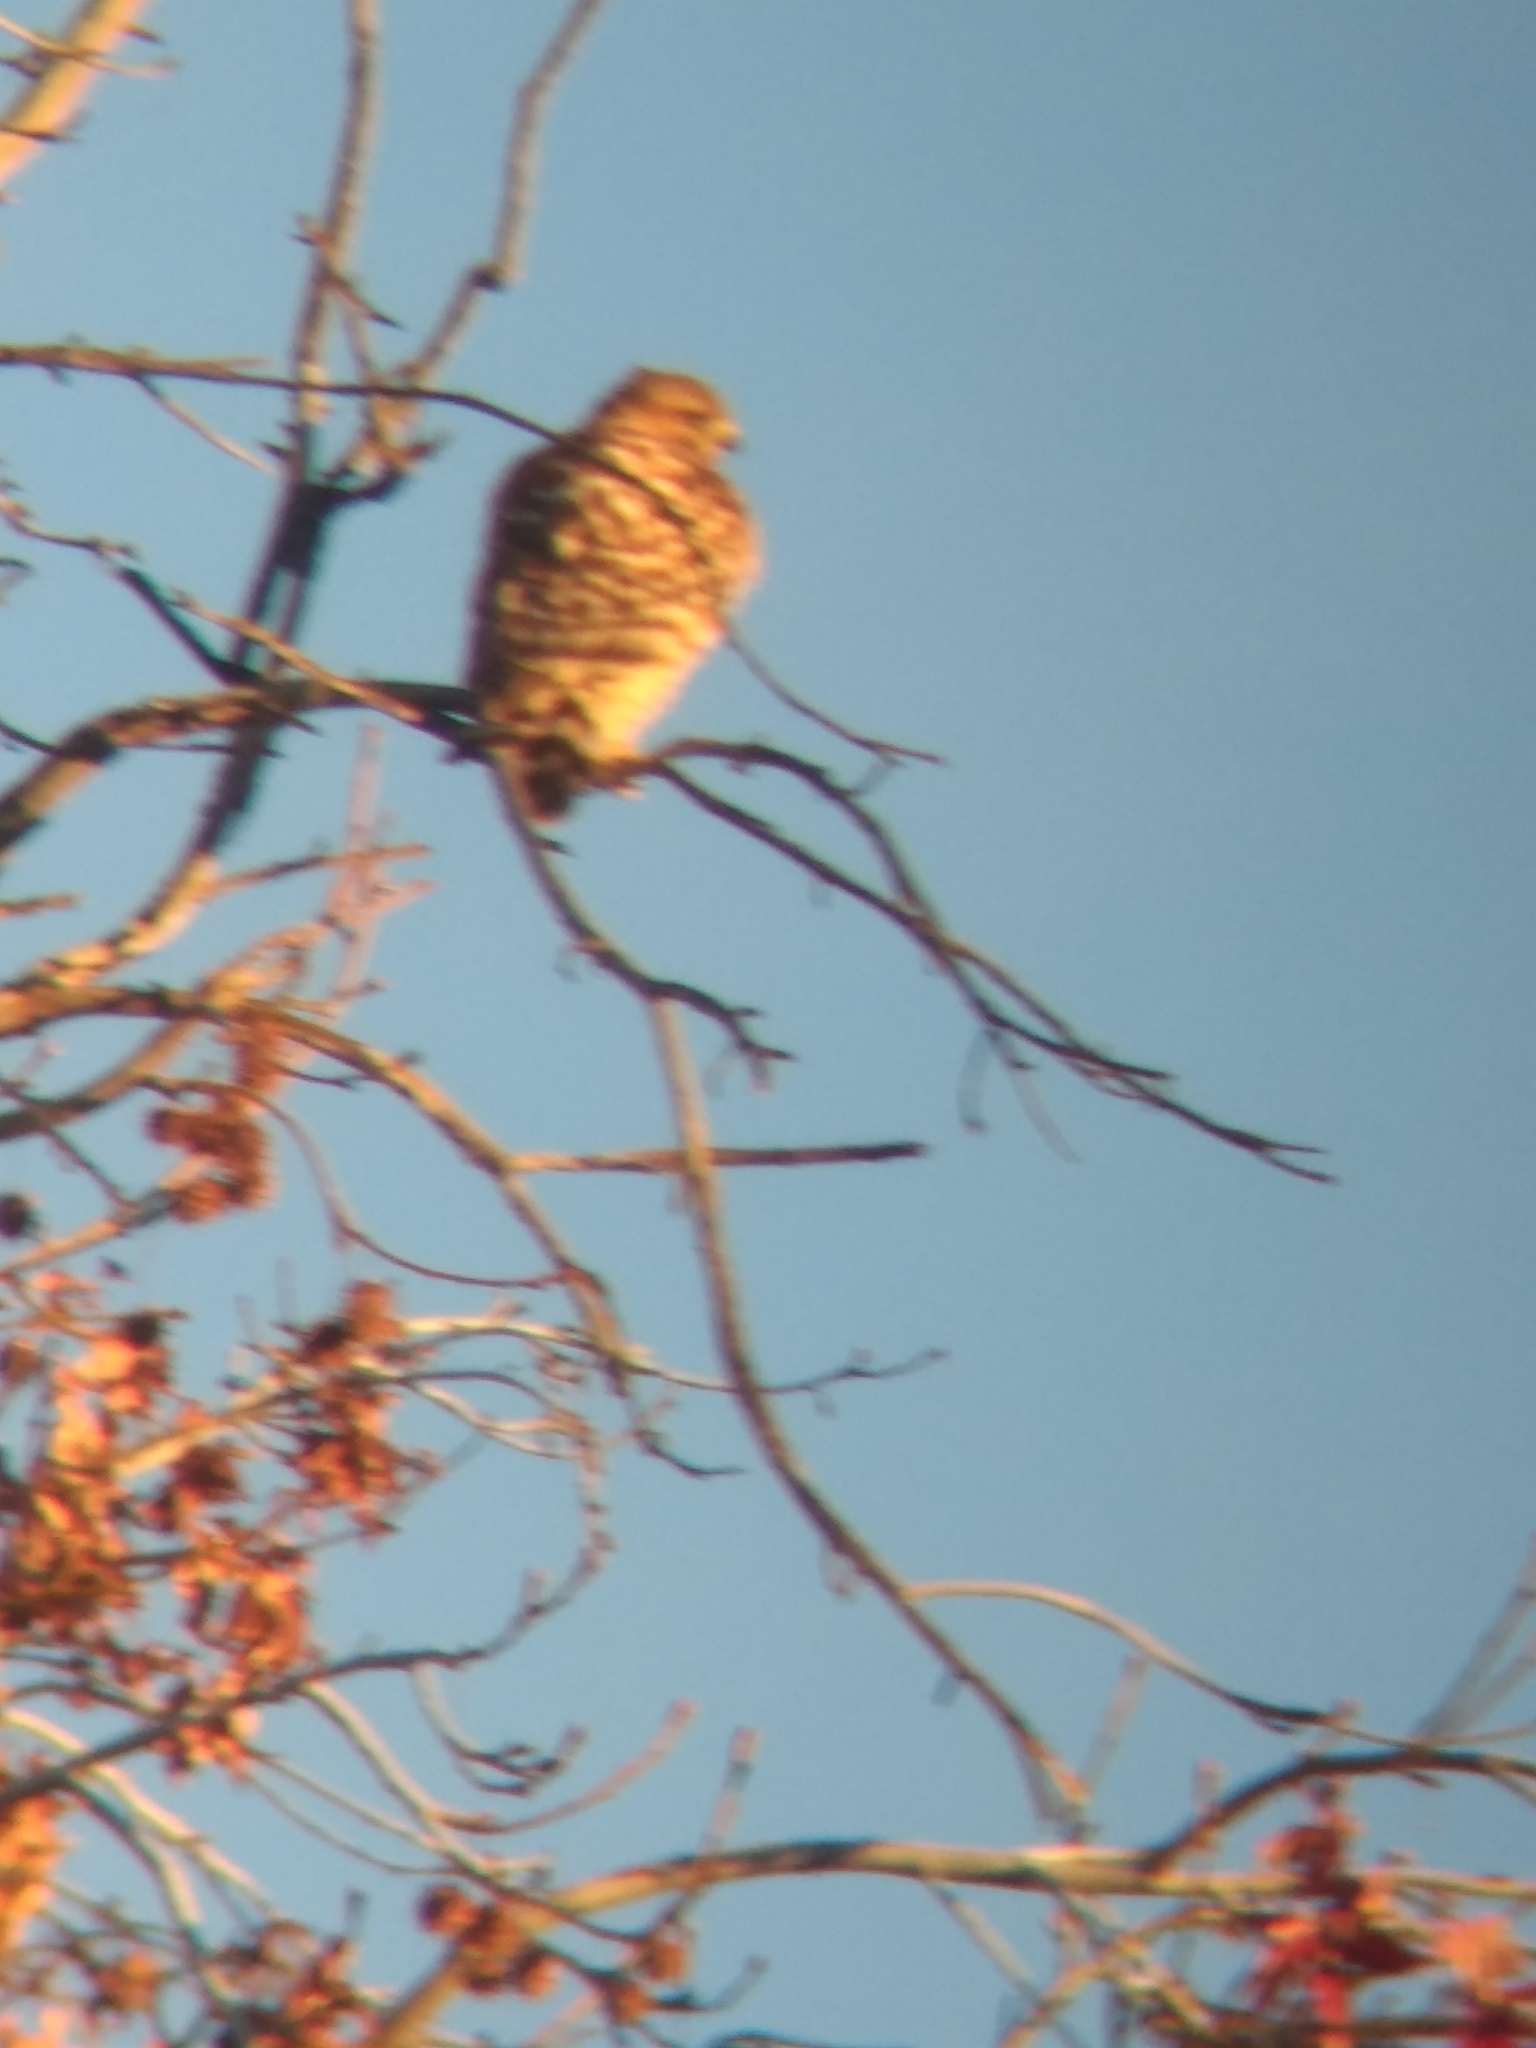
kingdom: Animalia
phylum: Chordata
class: Aves
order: Accipitriformes
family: Accipitridae
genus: Buteo
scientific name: Buteo lineatus
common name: Red-shouldered hawk
